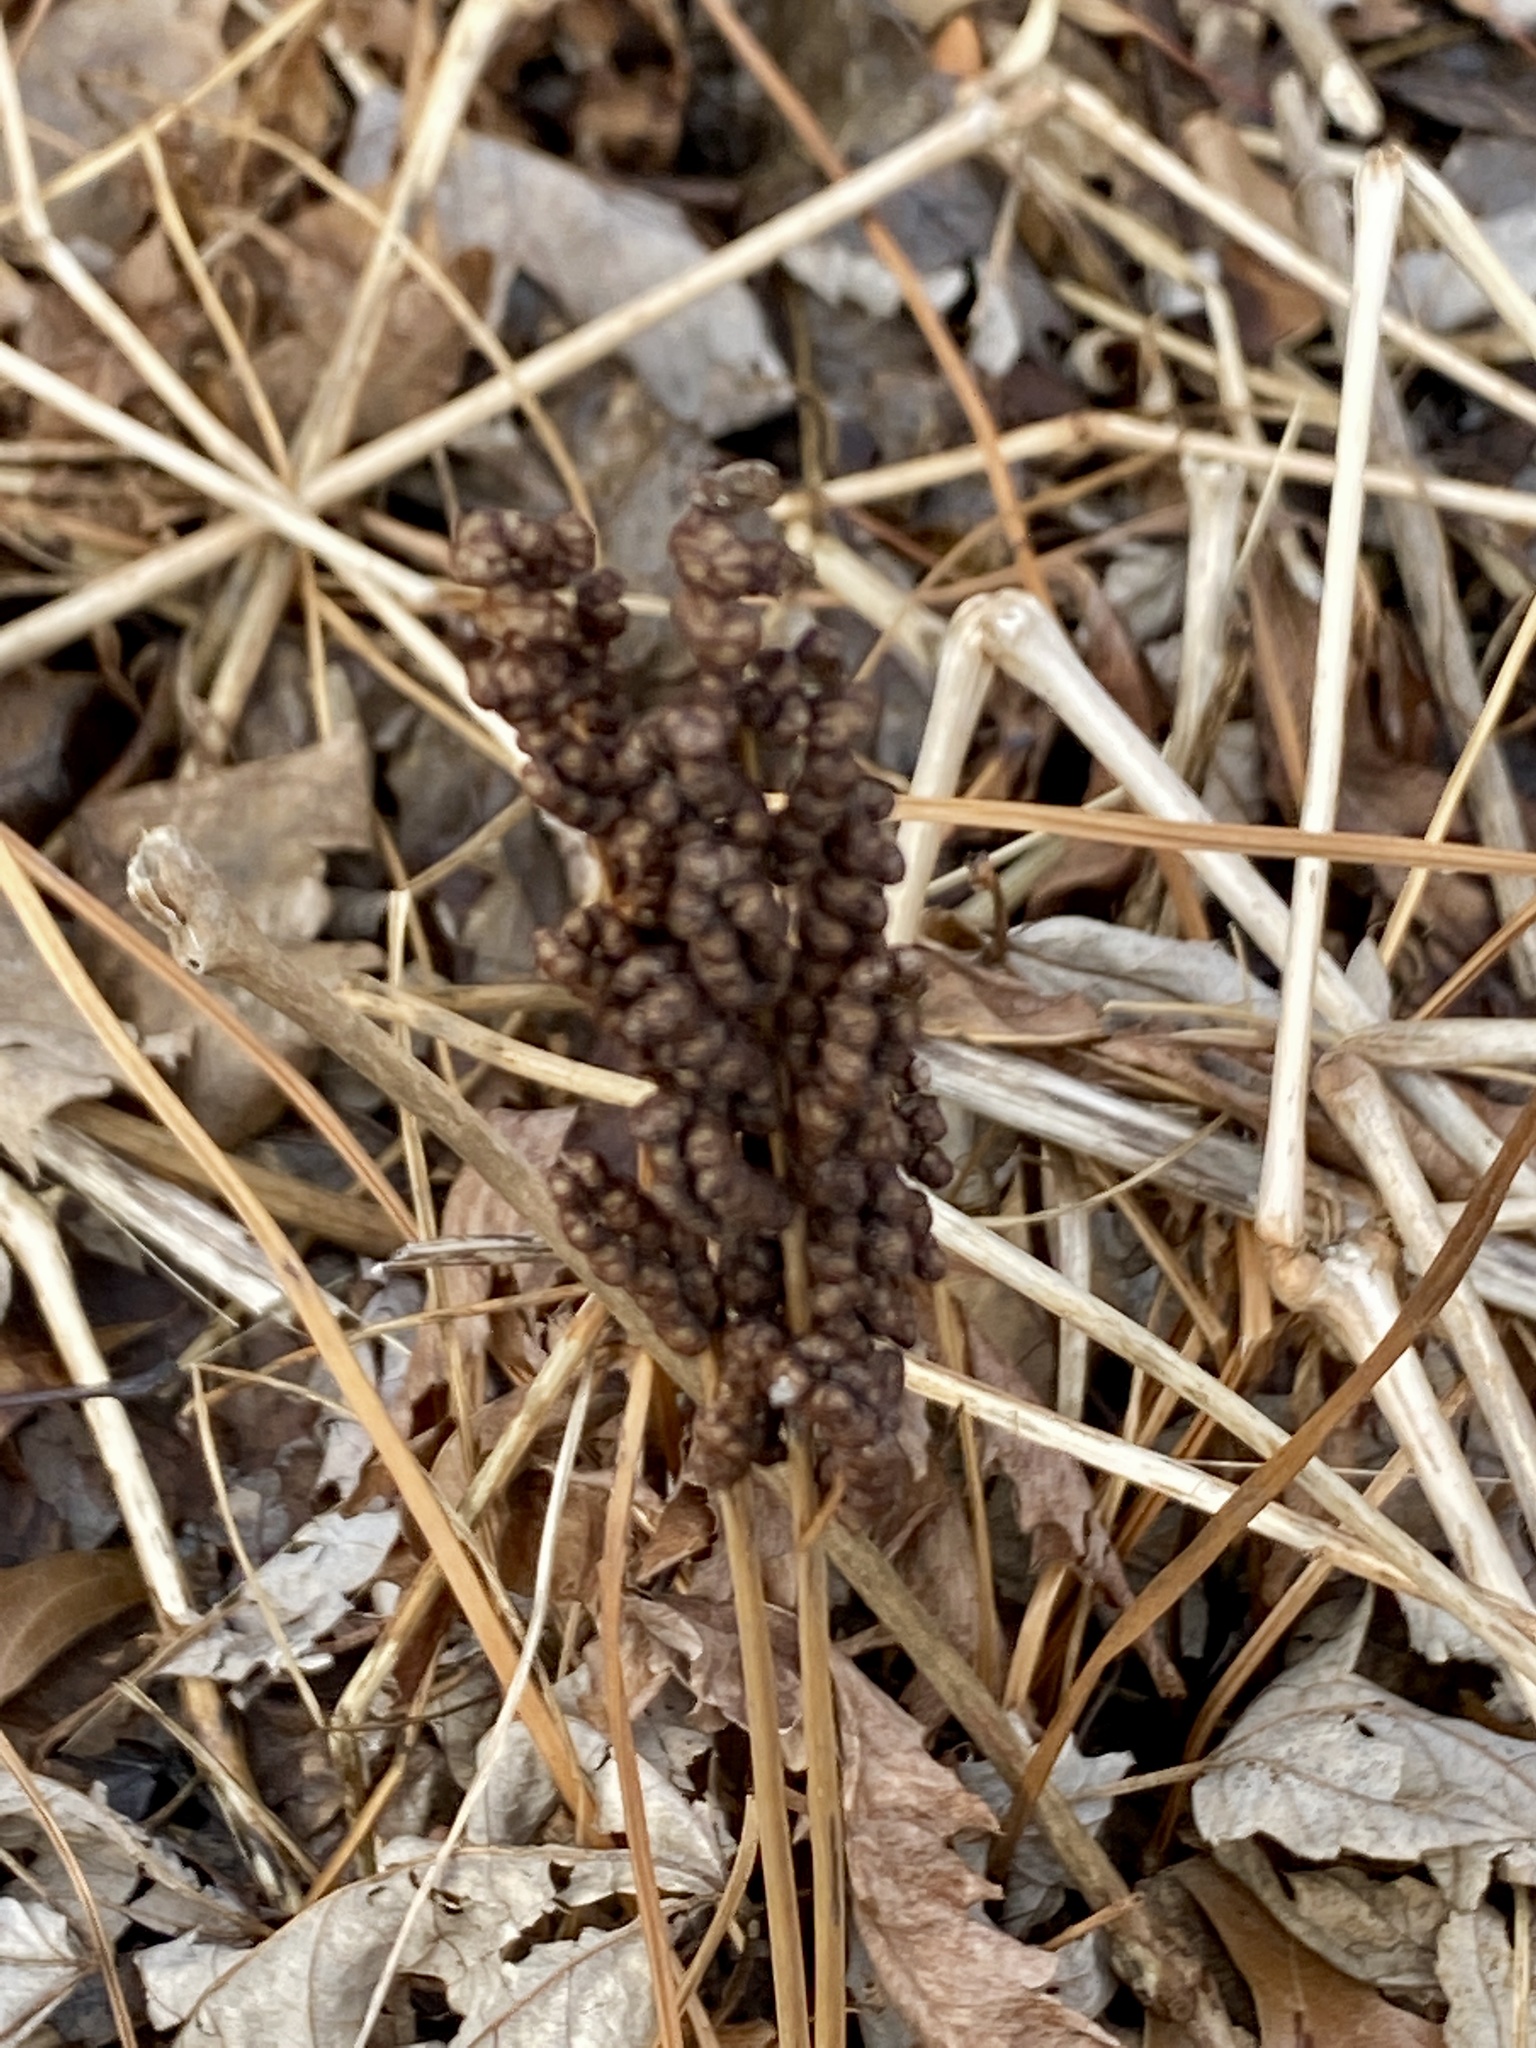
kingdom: Plantae
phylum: Tracheophyta
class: Polypodiopsida
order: Polypodiales
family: Onocleaceae
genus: Onoclea
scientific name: Onoclea sensibilis
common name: Sensitive fern
